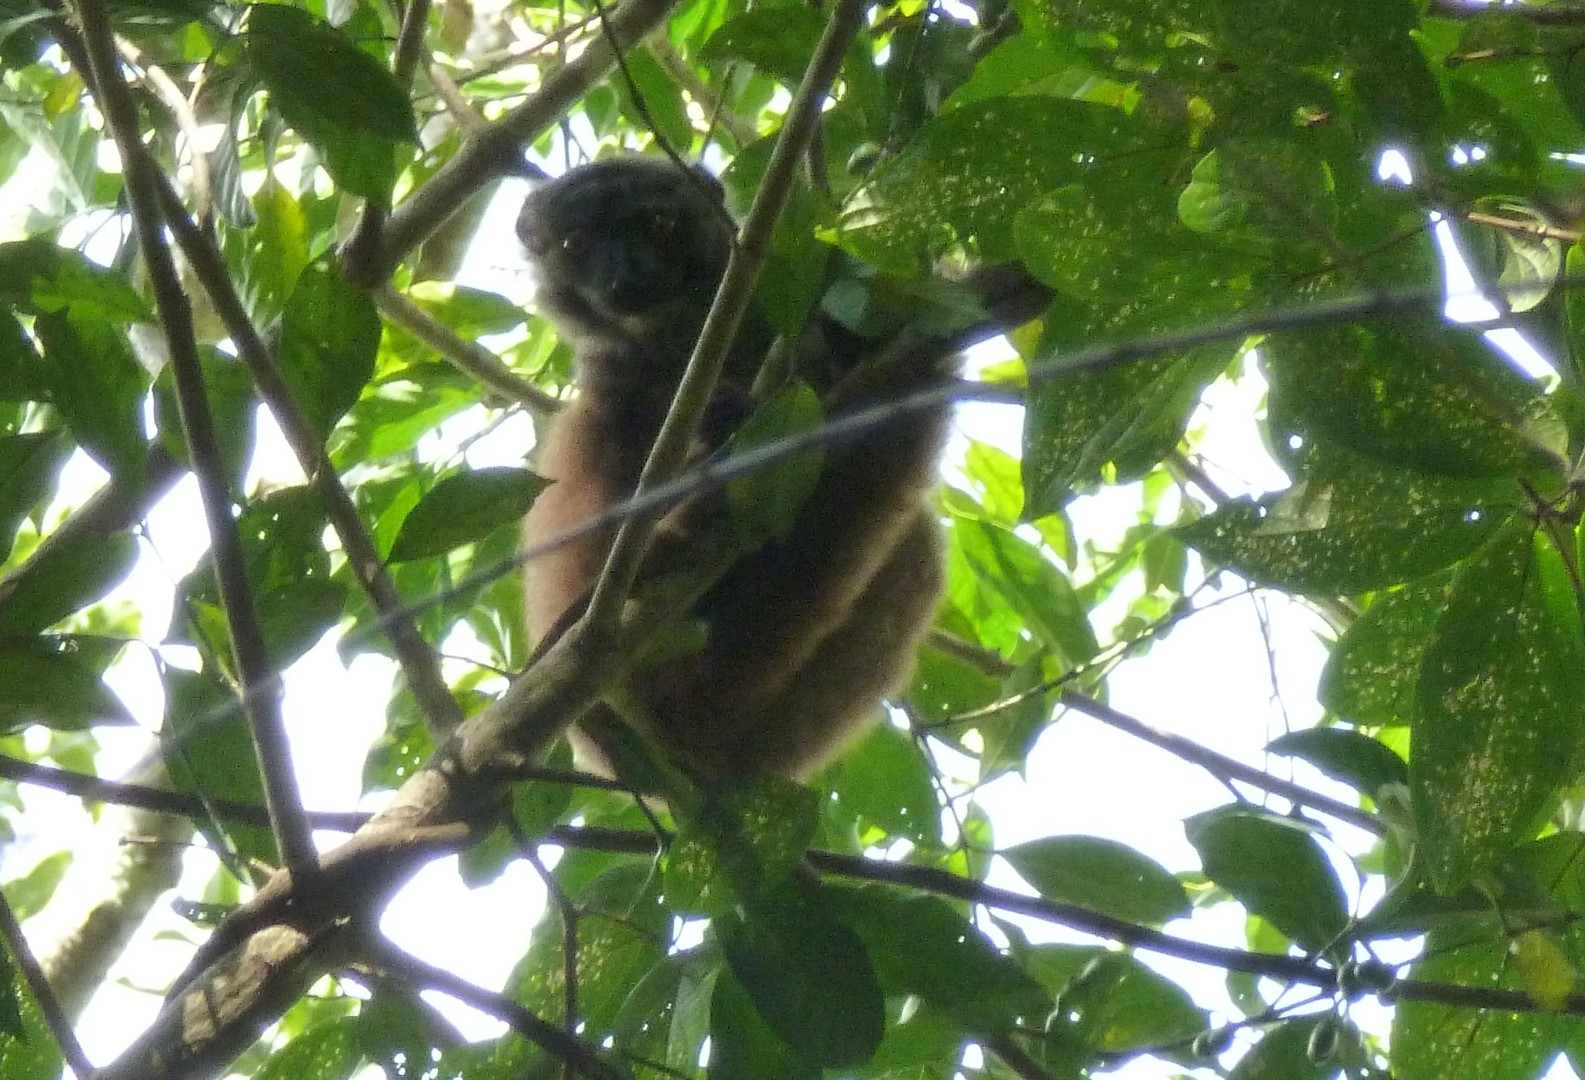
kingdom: Animalia
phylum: Chordata
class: Mammalia
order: Primates
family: Lemuridae
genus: Eulemur
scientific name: Eulemur albifrons
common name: White-headed lemur
